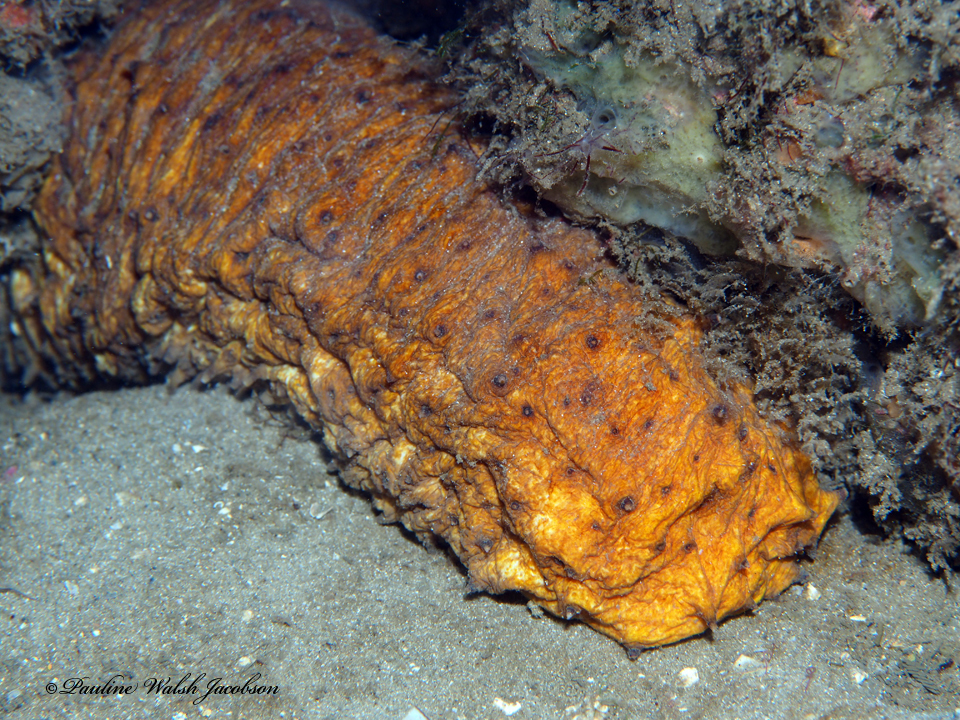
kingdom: Animalia
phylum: Echinodermata
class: Holothuroidea
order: Holothuriida
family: Holothuriidae
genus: Holothuria
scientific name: Holothuria thomasi
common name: Tiger tail sea cocumber
